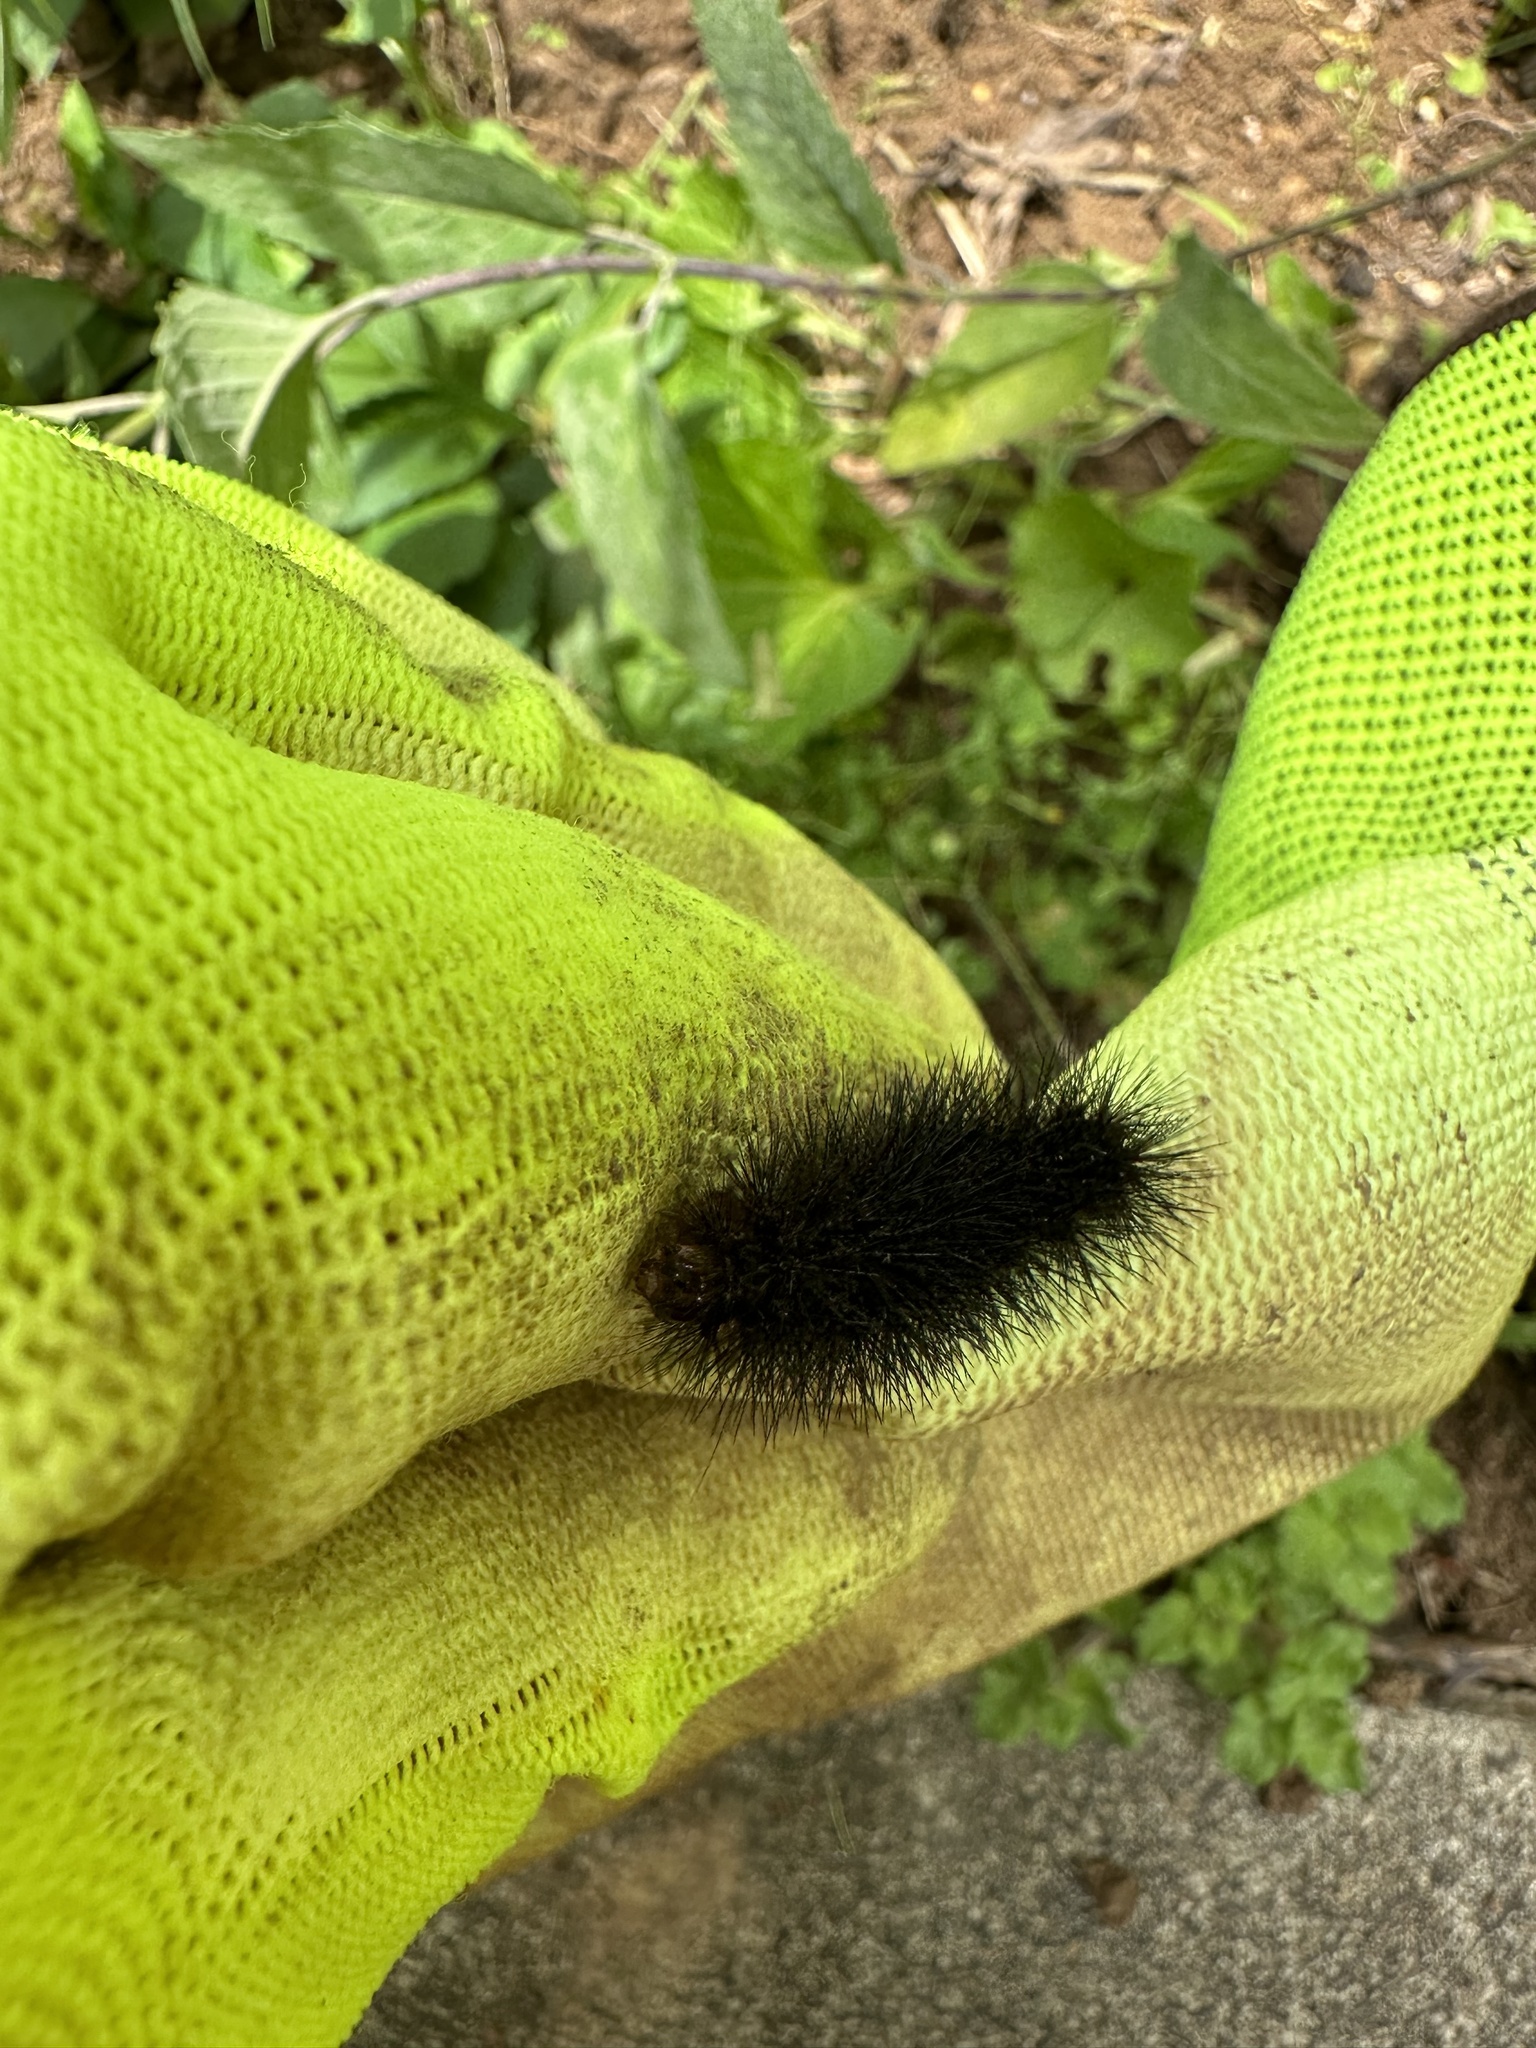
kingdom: Animalia
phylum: Arthropoda
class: Insecta
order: Lepidoptera
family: Erebidae
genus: Hypercompe
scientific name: Hypercompe scribonia
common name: Giant leopard moth
